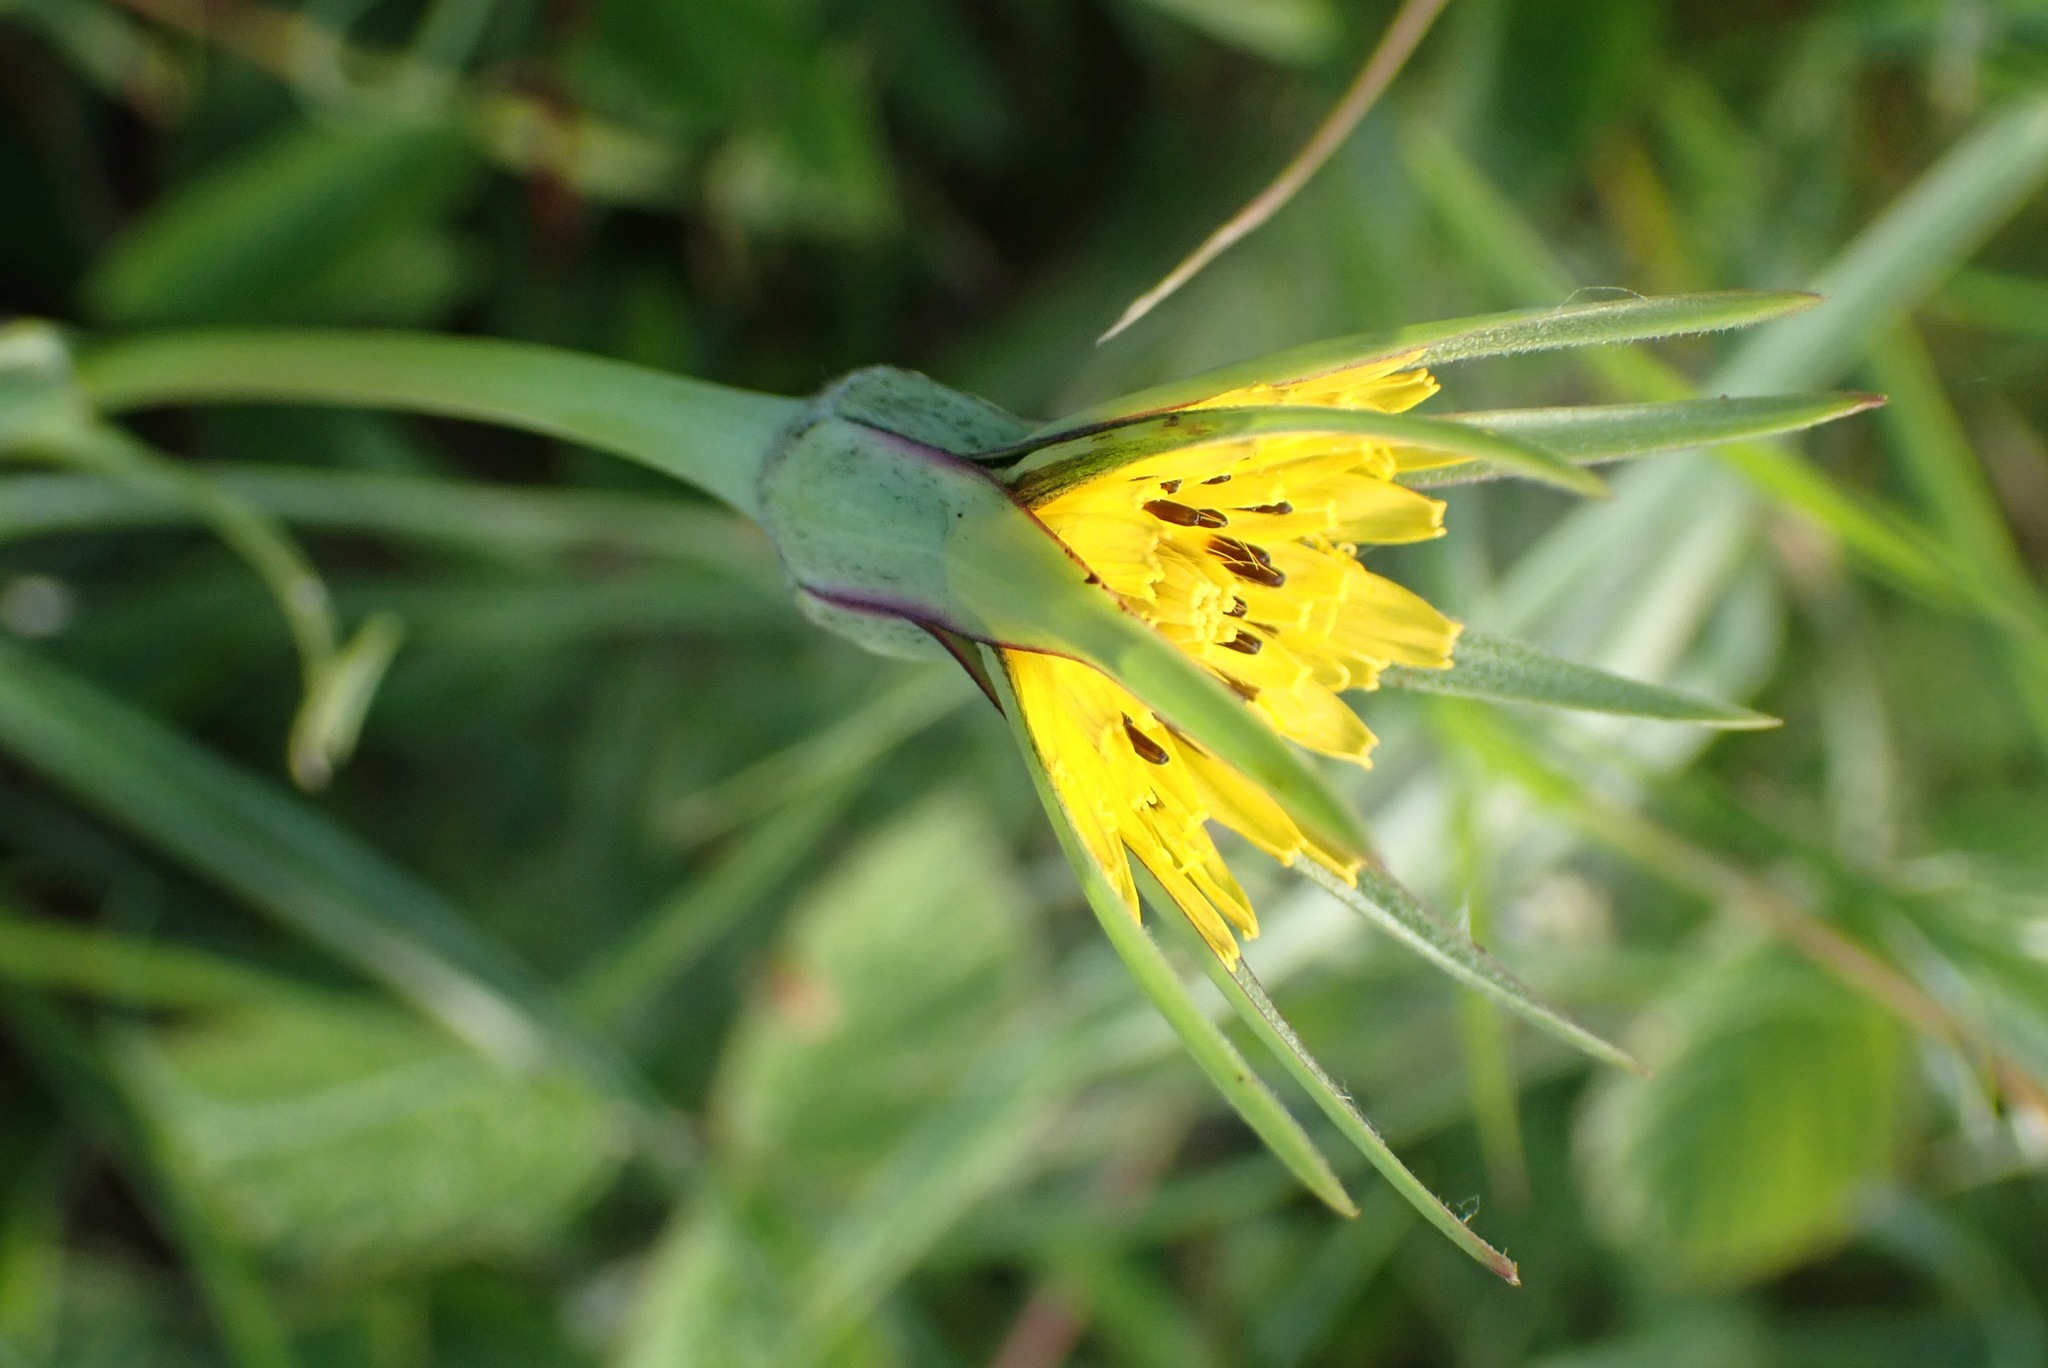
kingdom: Plantae
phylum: Tracheophyta
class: Magnoliopsida
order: Asterales
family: Asteraceae
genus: Tragopogon
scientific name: Tragopogon pratensis
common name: Goat's-beard
